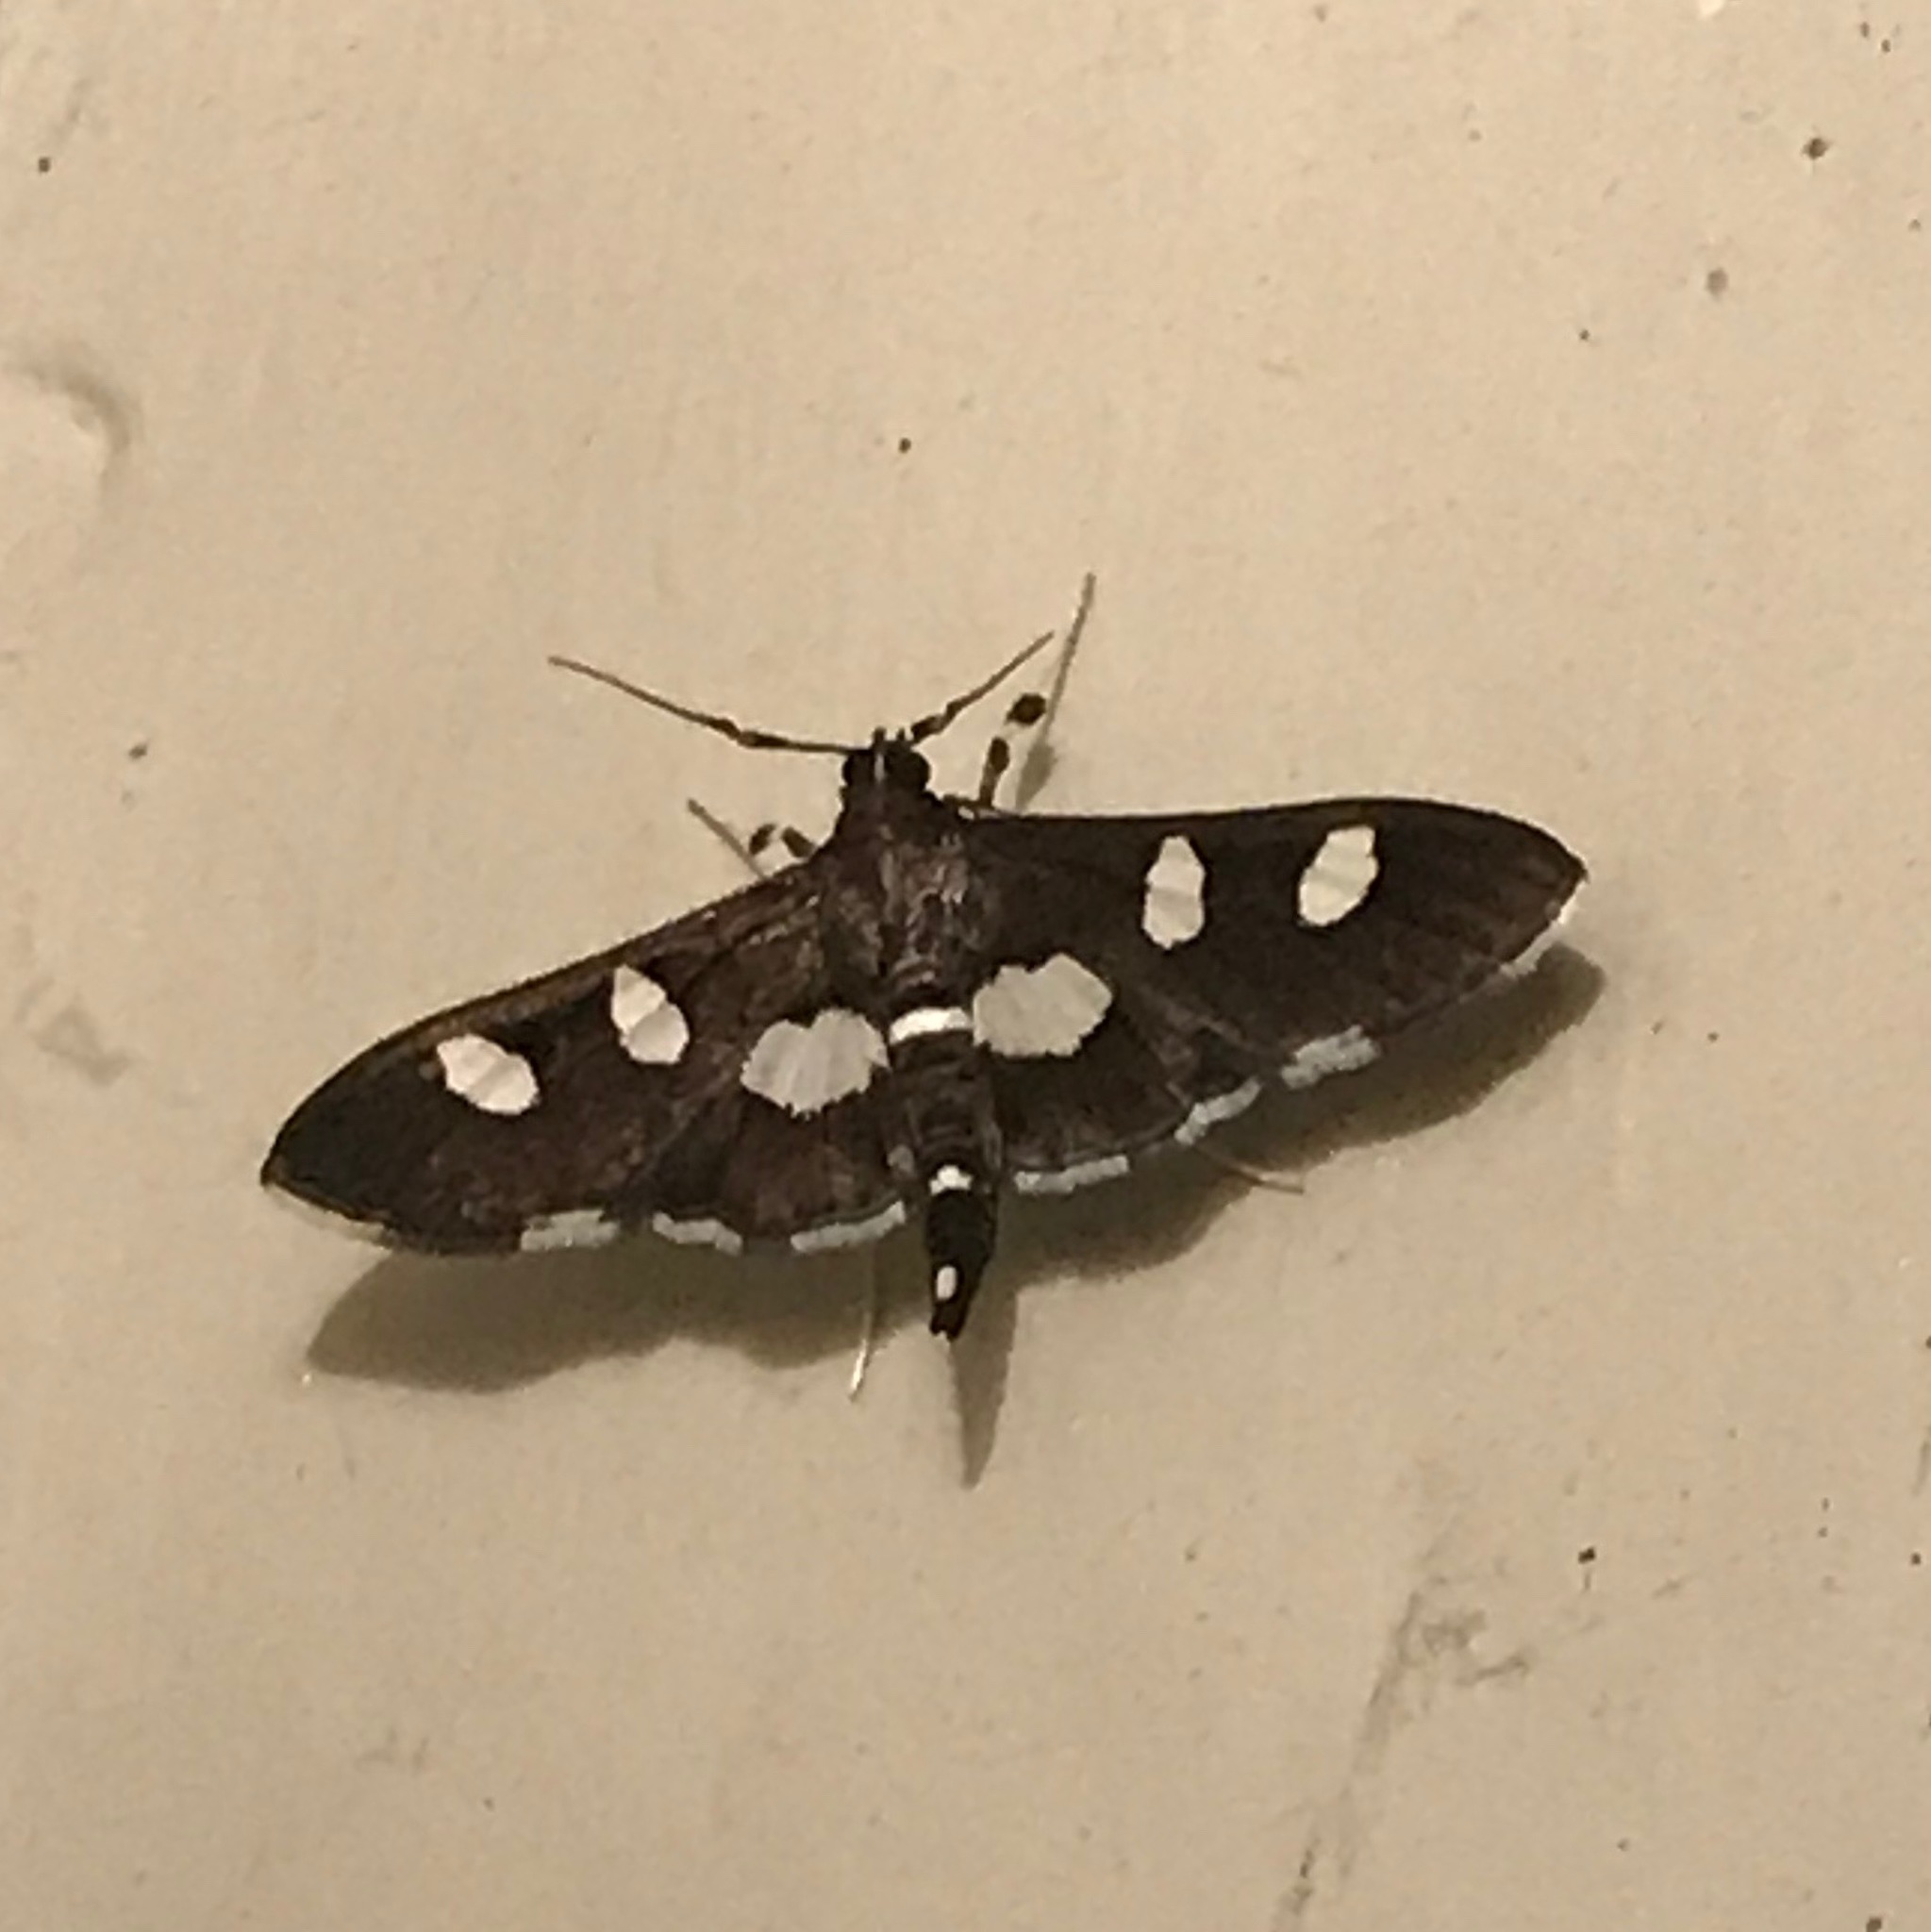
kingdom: Animalia
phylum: Arthropoda
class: Insecta
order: Lepidoptera
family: Crambidae
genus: Desmia
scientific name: Desmia
